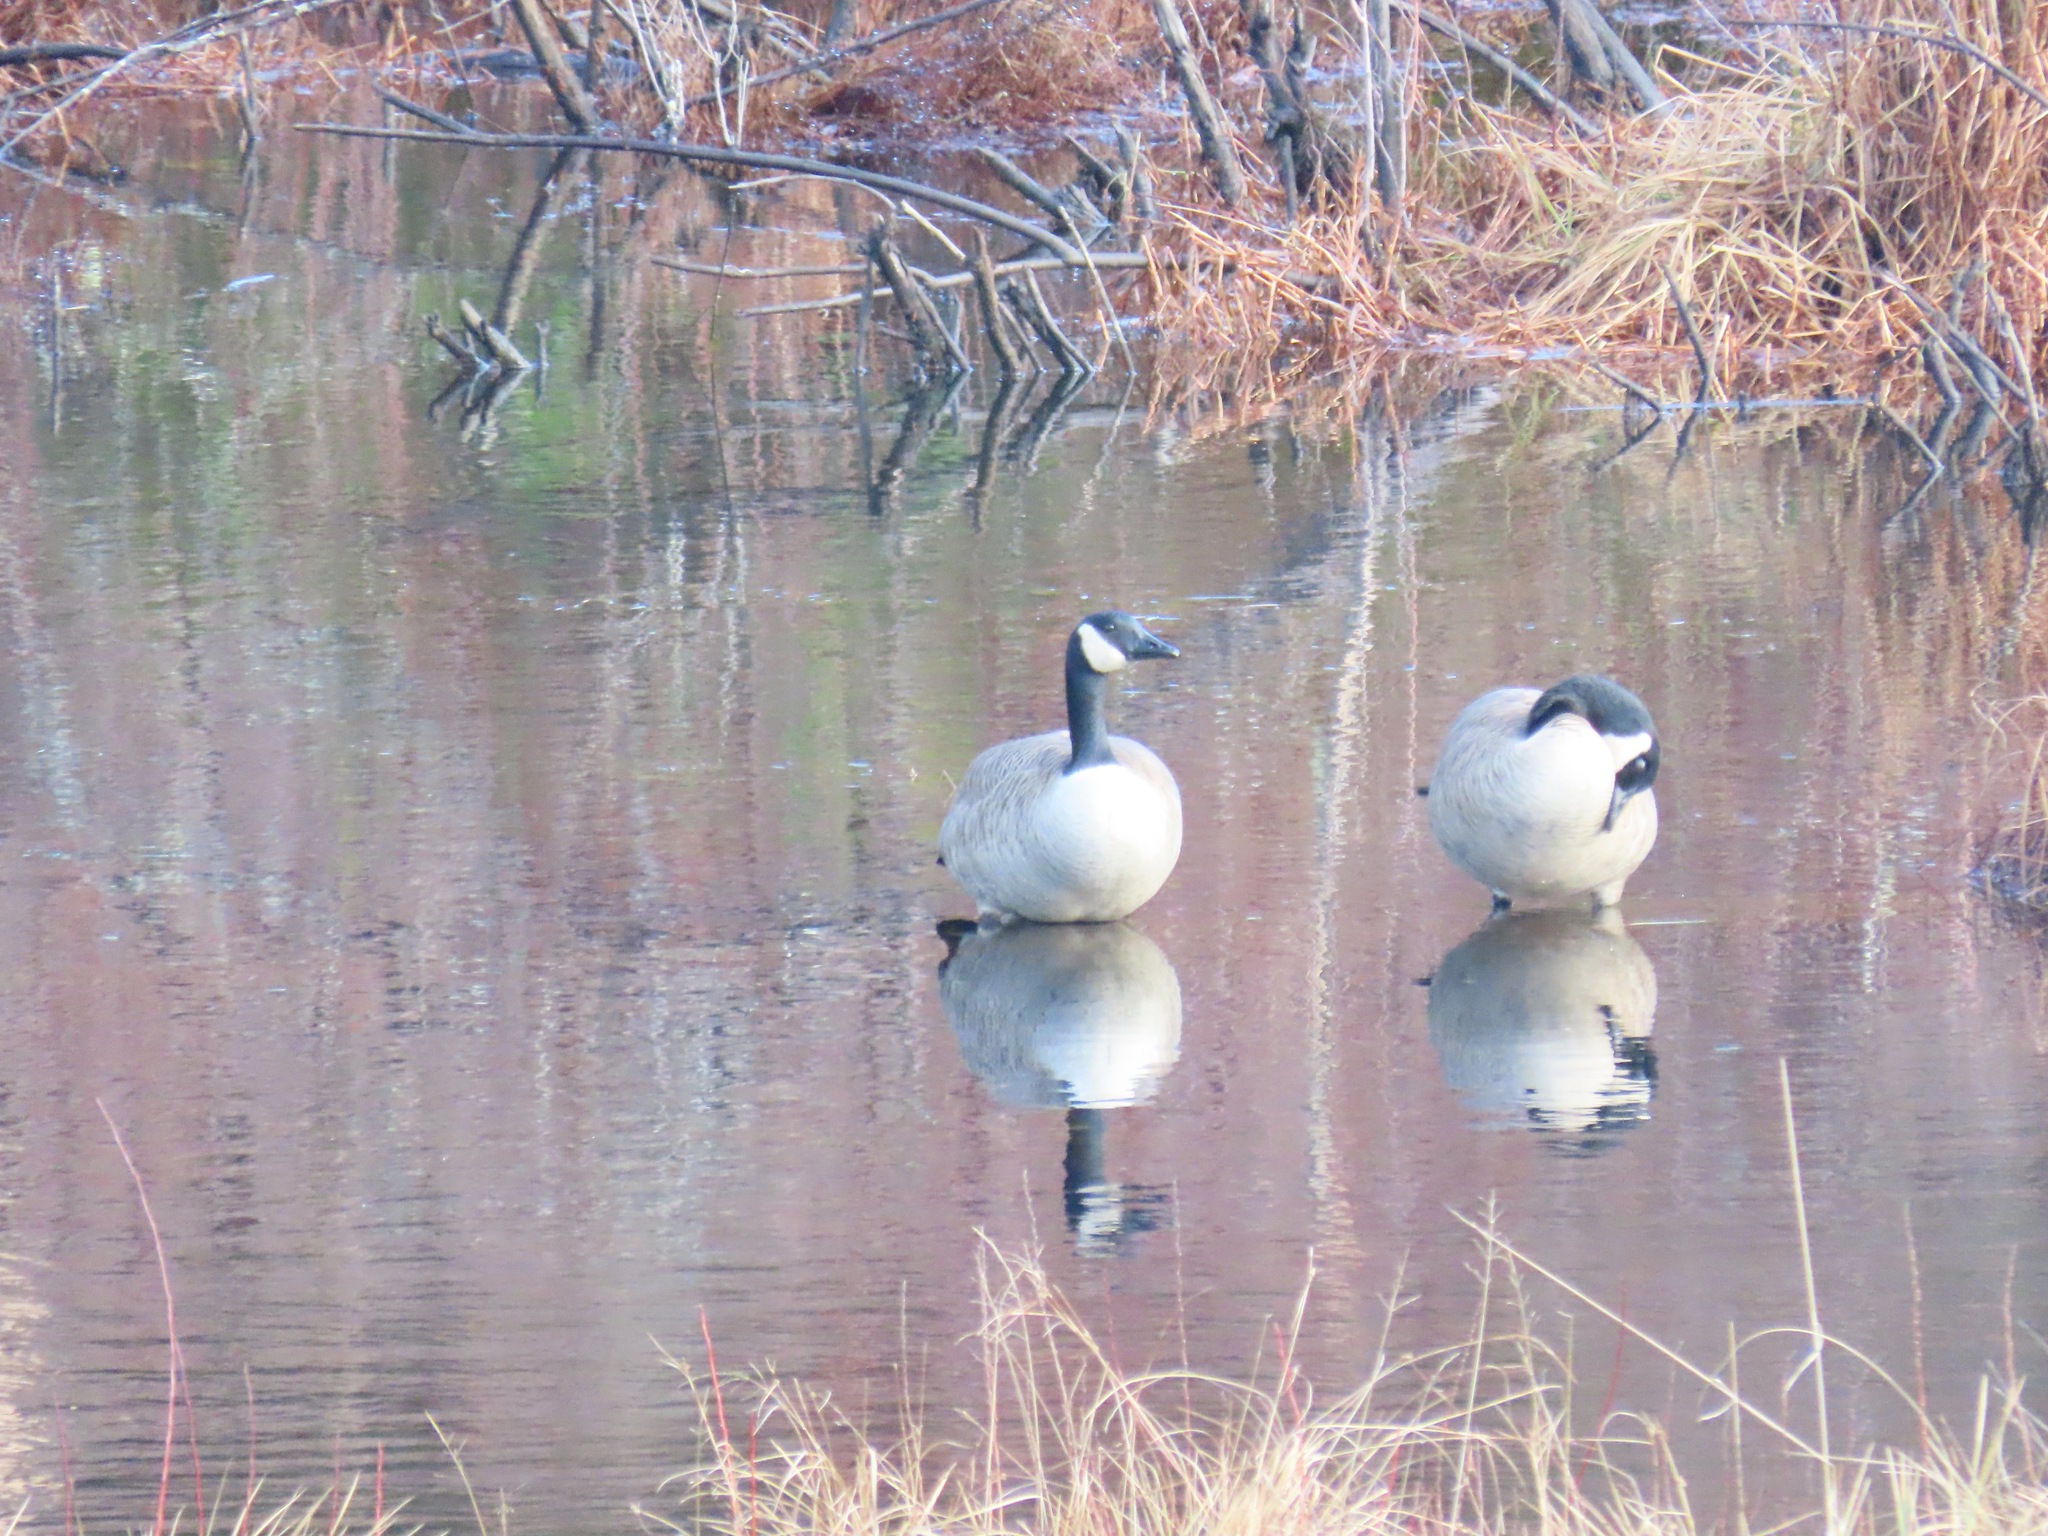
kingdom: Animalia
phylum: Chordata
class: Aves
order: Anseriformes
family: Anatidae
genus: Branta
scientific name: Branta canadensis
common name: Canada goose
